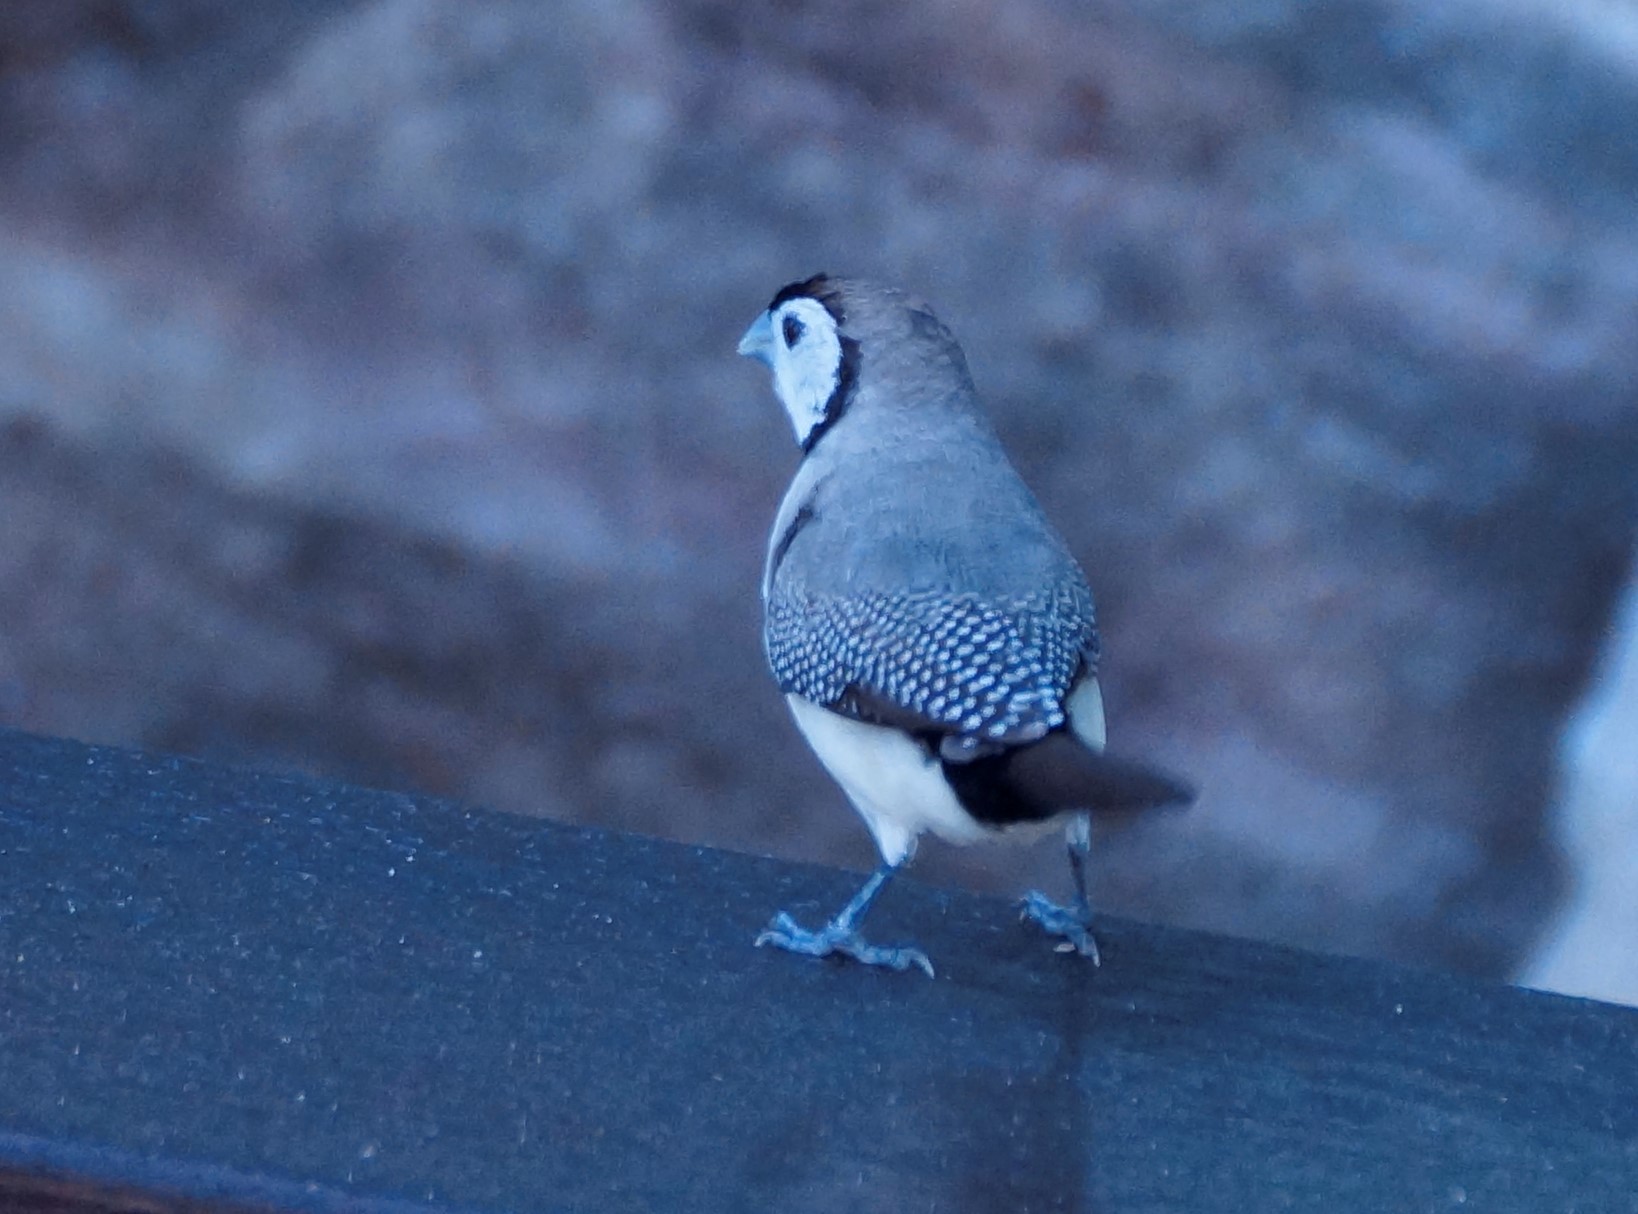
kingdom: Animalia
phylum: Chordata
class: Aves
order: Passeriformes
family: Estrildidae
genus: Taeniopygia
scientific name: Taeniopygia bichenovii
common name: Double-barred finch
